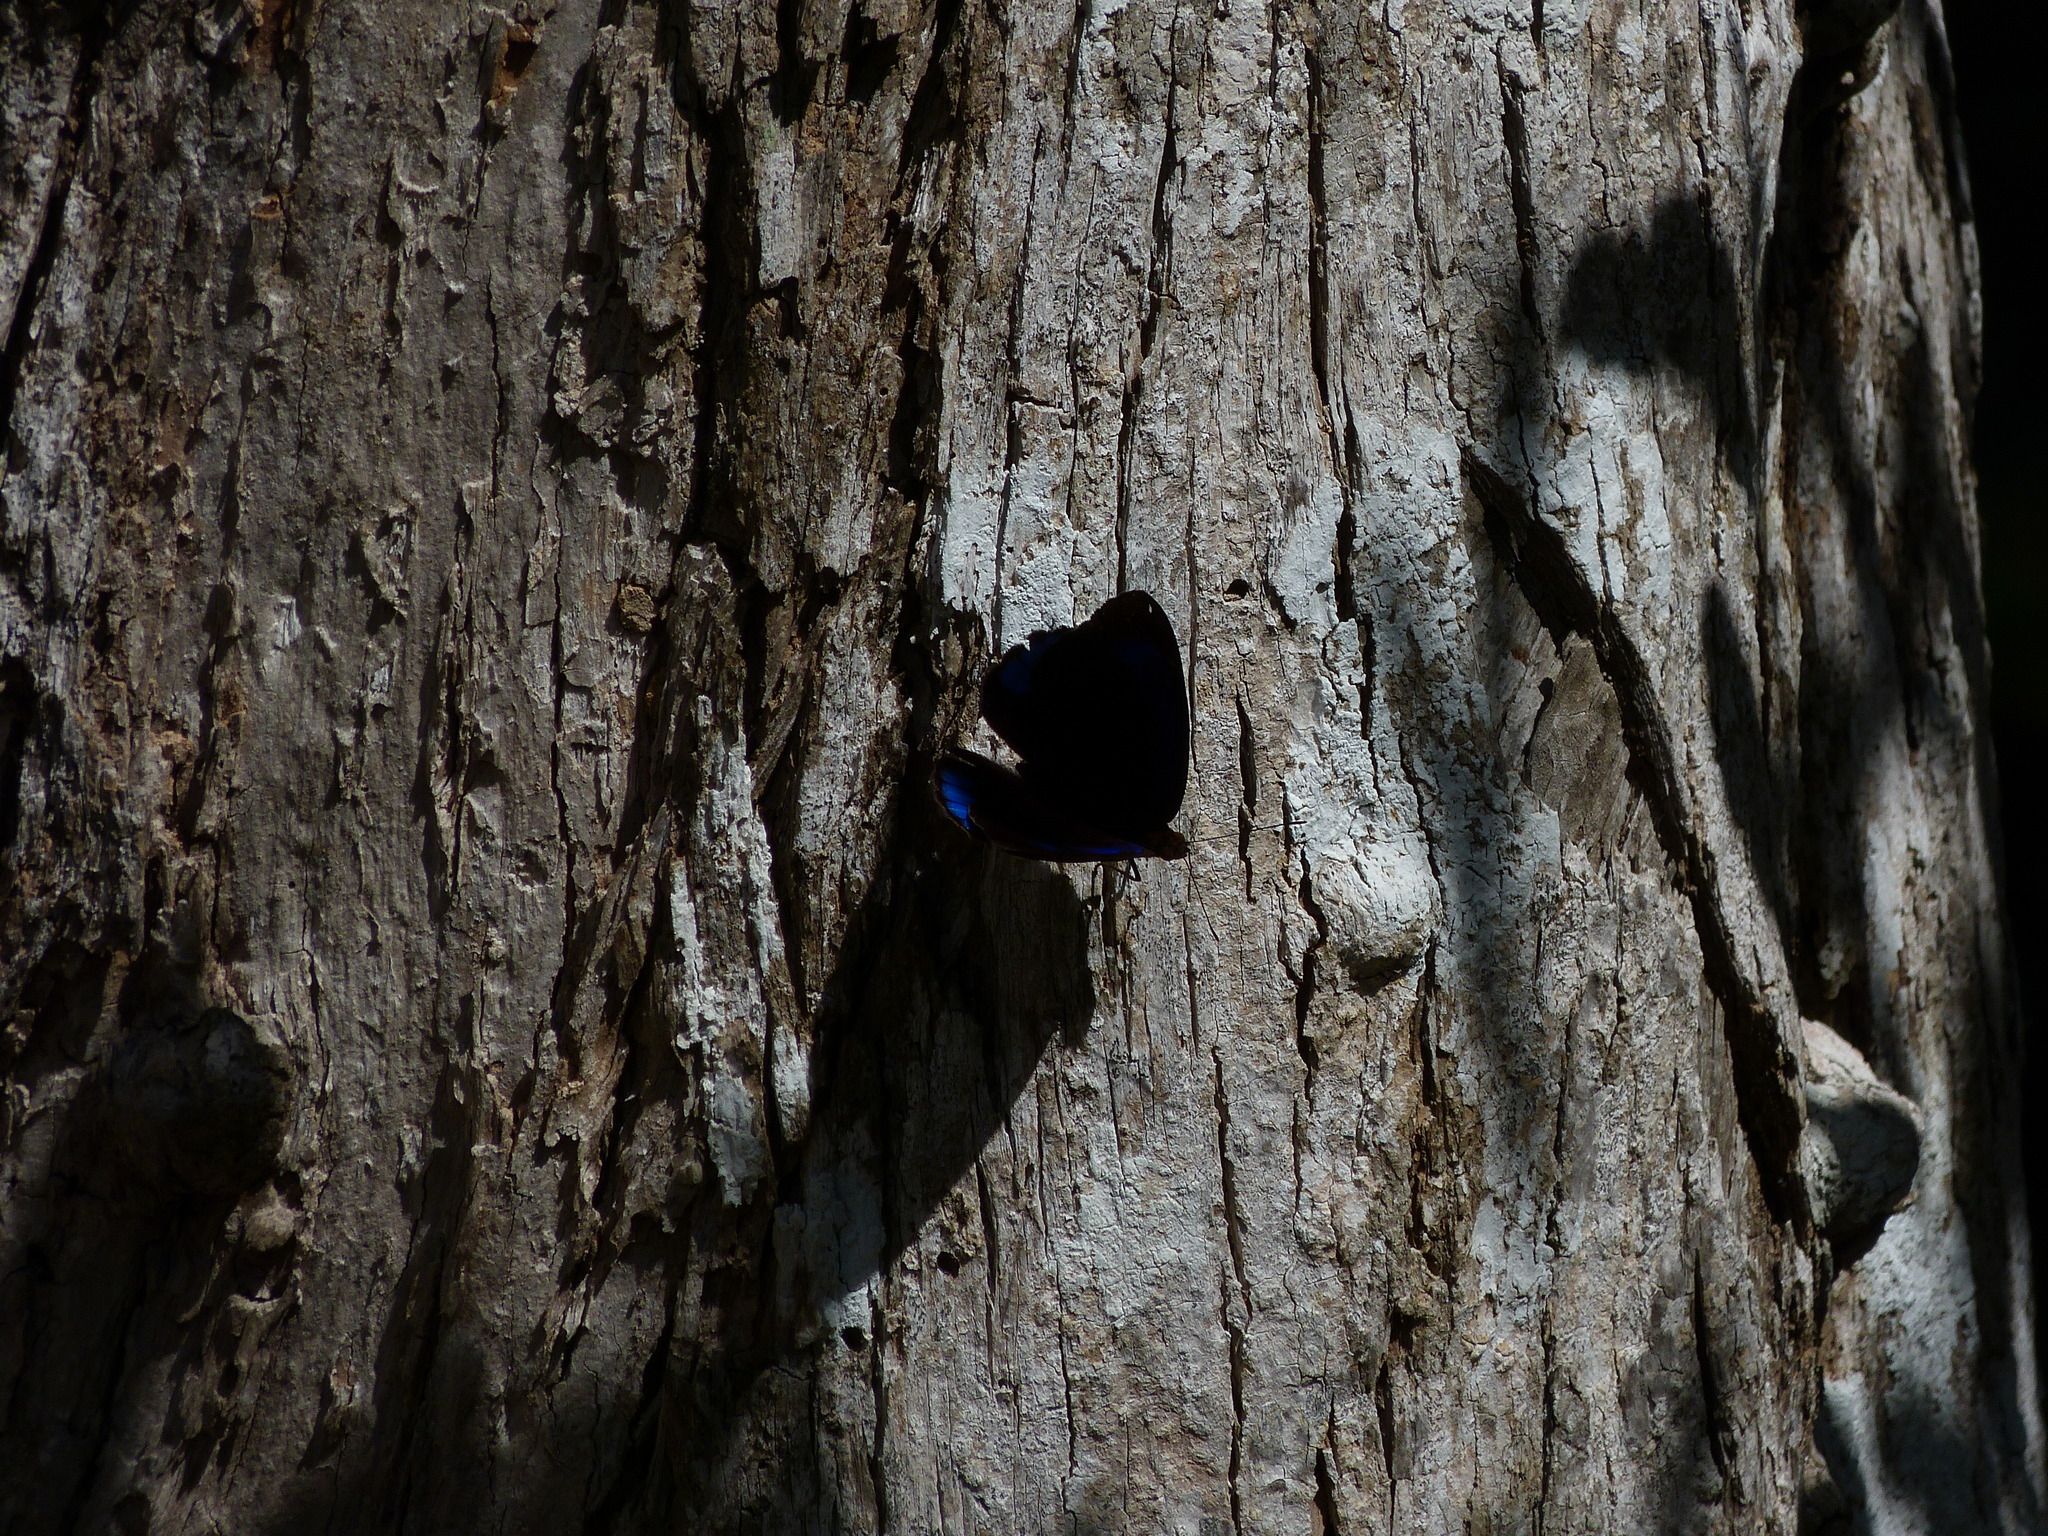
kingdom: Animalia
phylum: Arthropoda
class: Insecta
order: Lepidoptera
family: Nymphalidae
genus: Eunica
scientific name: Eunica alcmena
